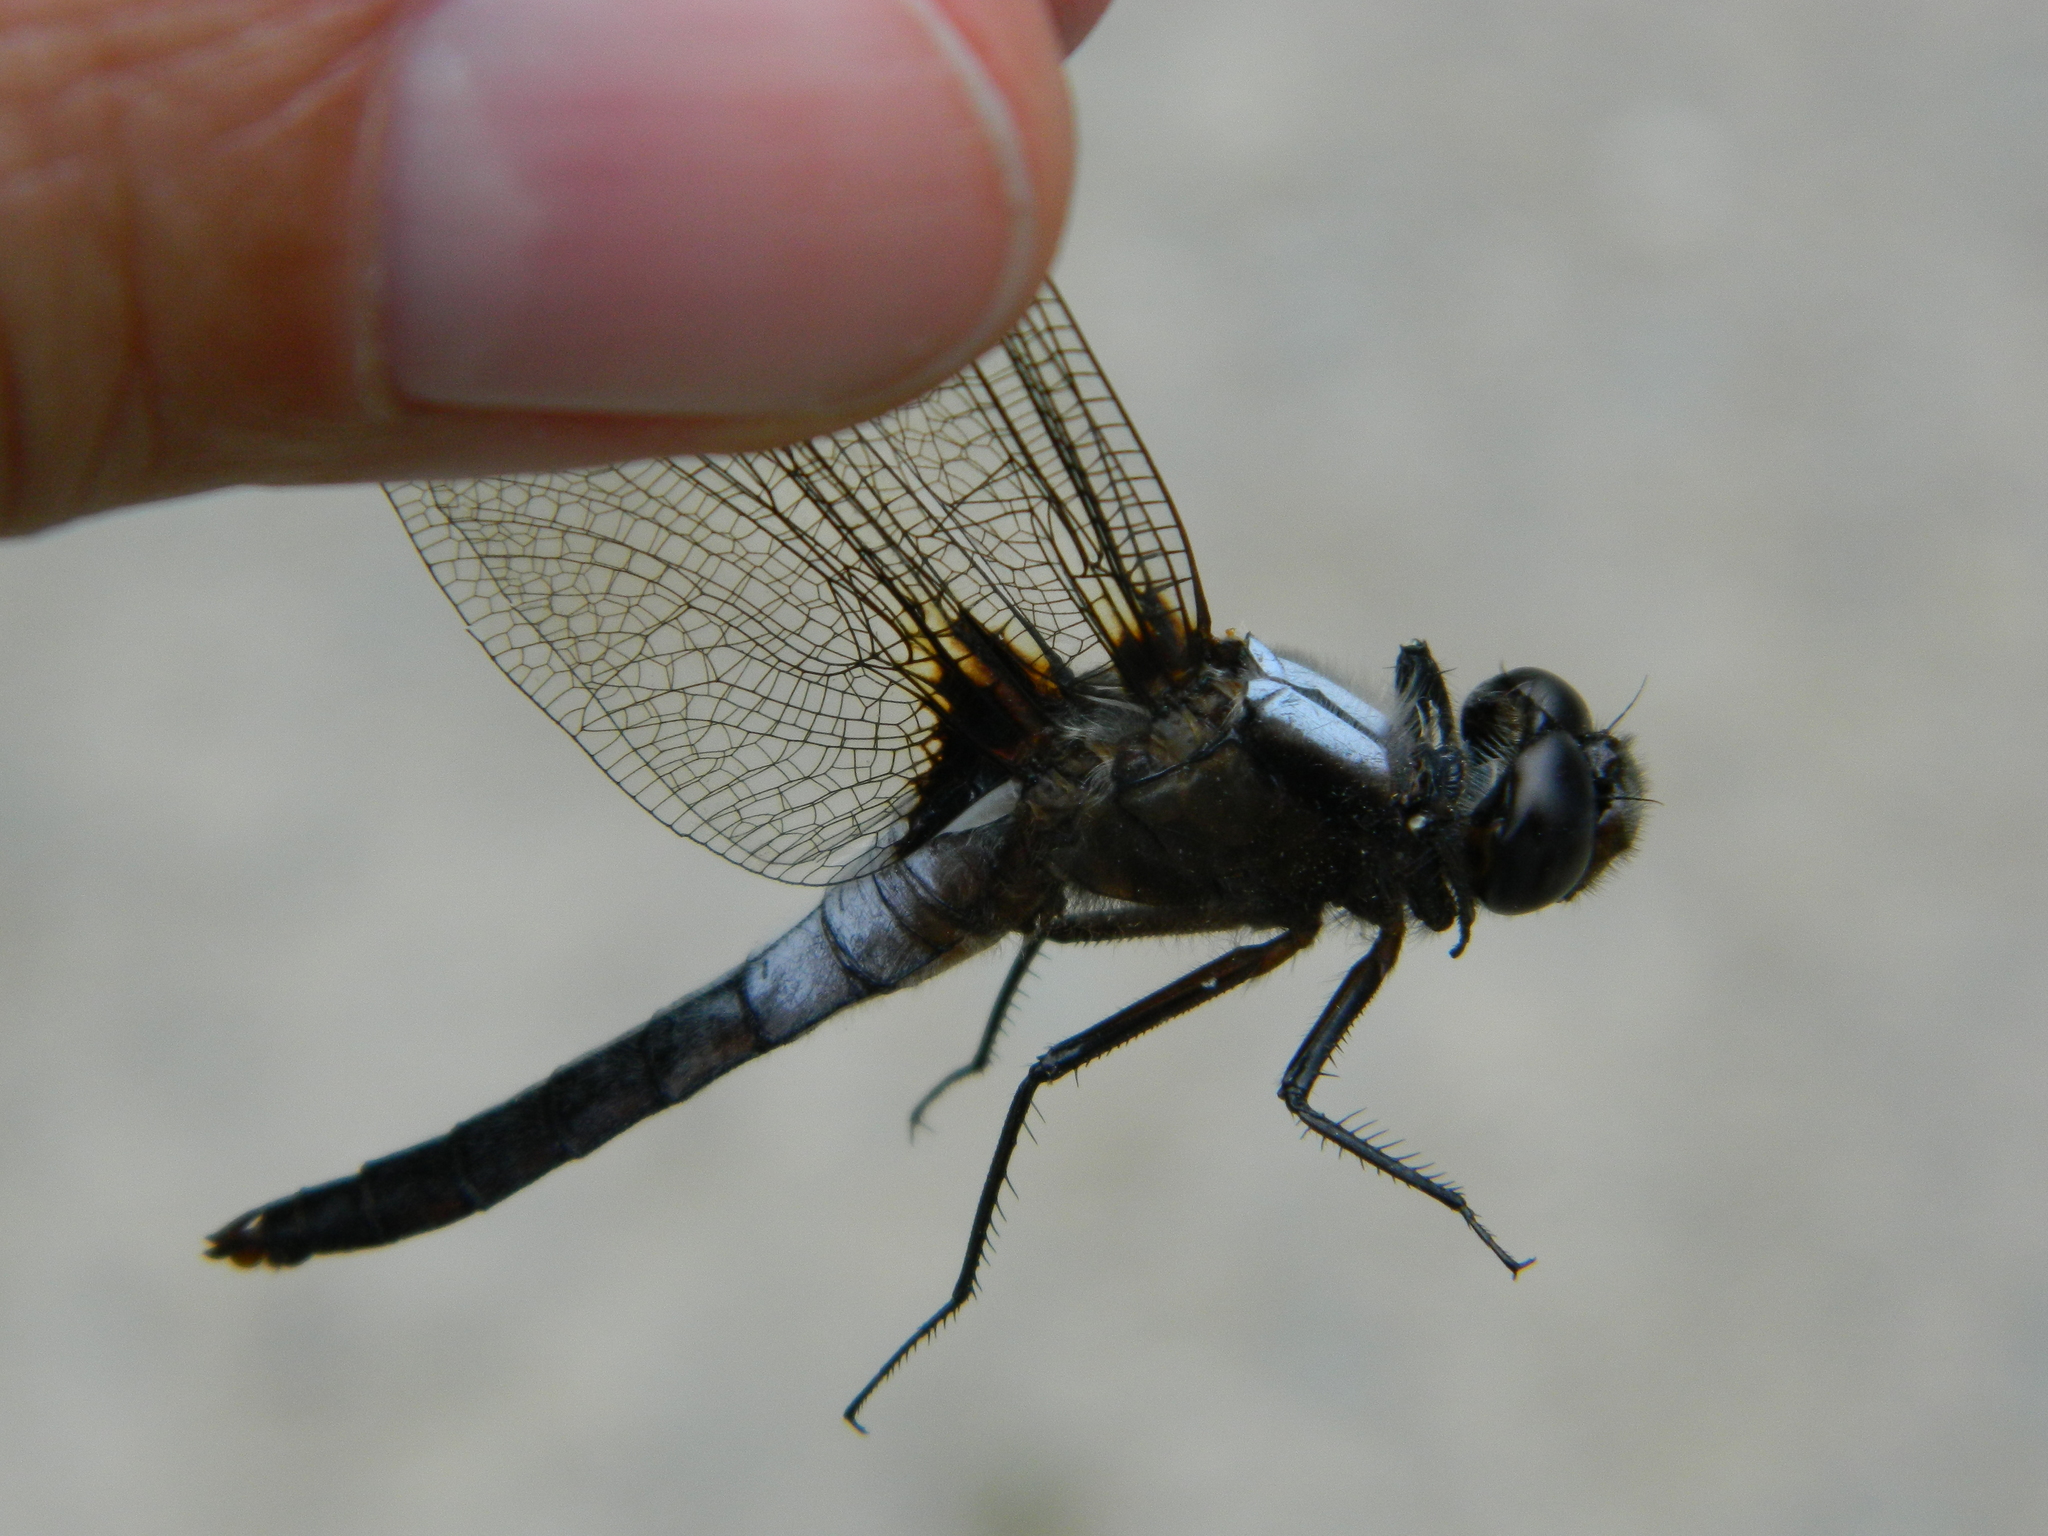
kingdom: Animalia
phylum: Arthropoda
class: Insecta
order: Odonata
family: Libellulidae
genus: Ladona
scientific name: Ladona julia
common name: Chalk-fronted corporal
